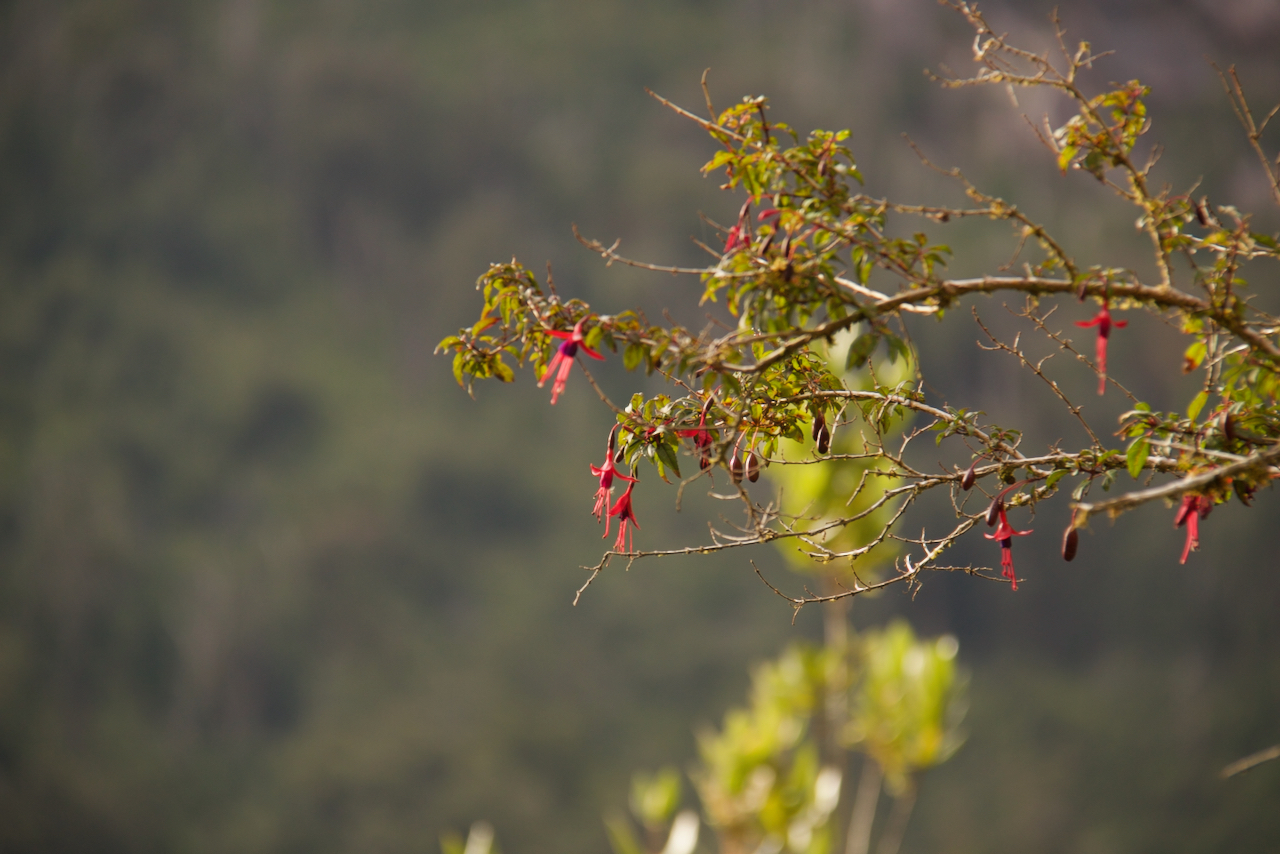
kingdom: Plantae
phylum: Tracheophyta
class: Magnoliopsida
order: Myrtales
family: Onagraceae
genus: Fuchsia
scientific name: Fuchsia magellanica
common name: Hardy fuchsia
